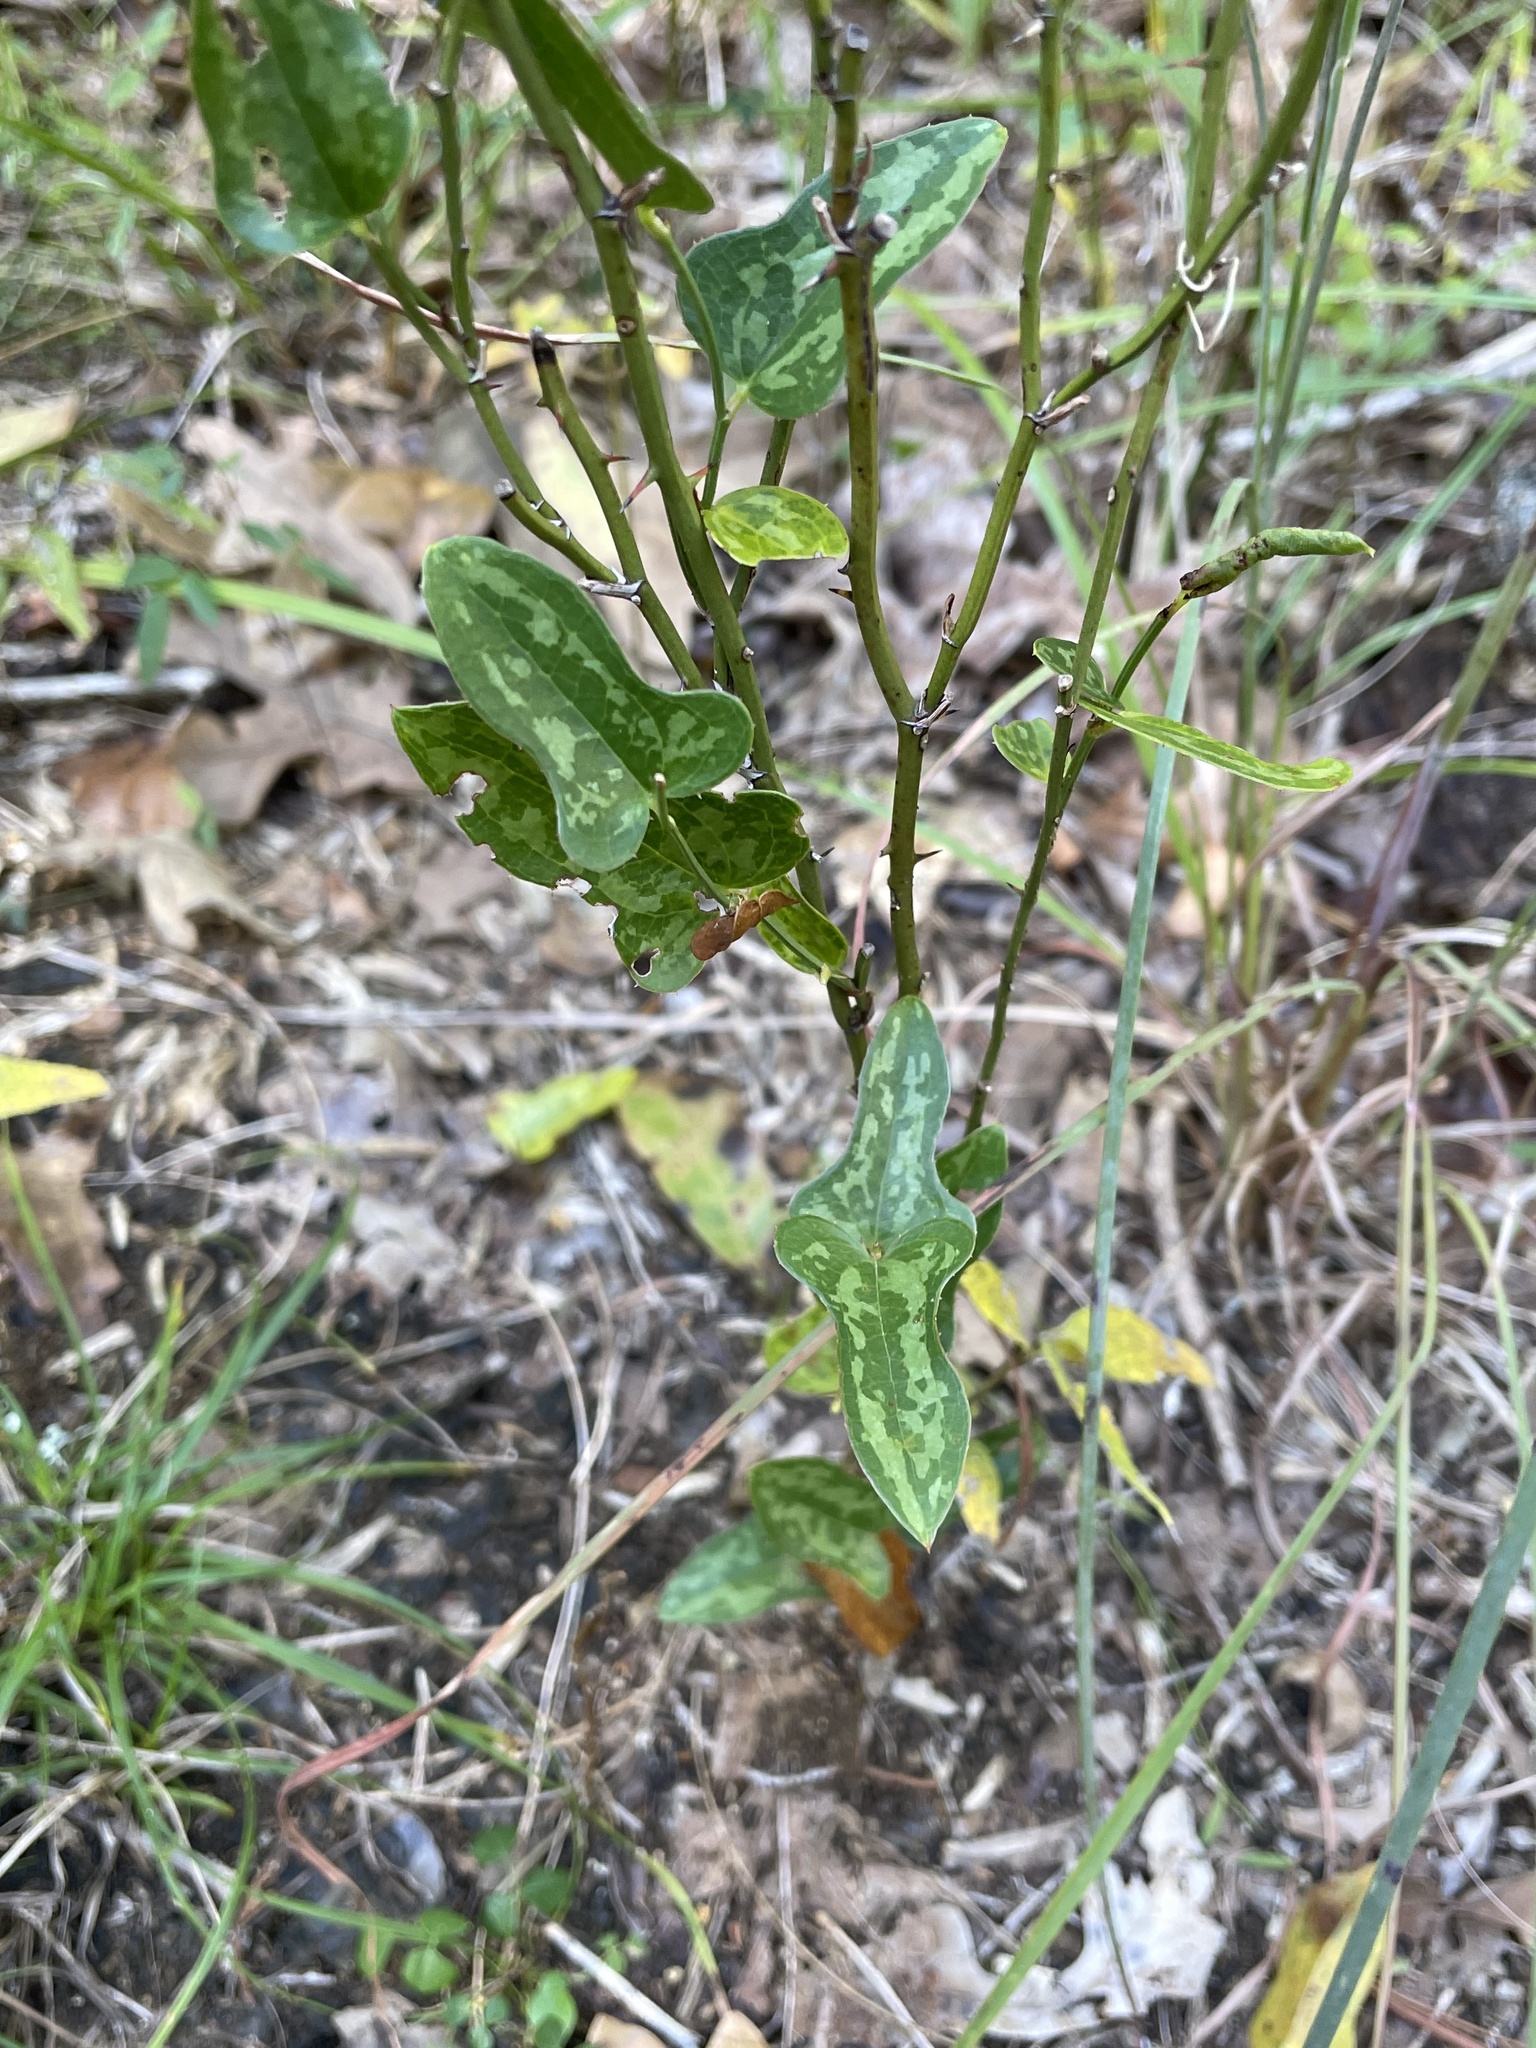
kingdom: Plantae
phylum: Tracheophyta
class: Liliopsida
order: Liliales
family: Smilacaceae
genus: Smilax
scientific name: Smilax bona-nox
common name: Catbrier
